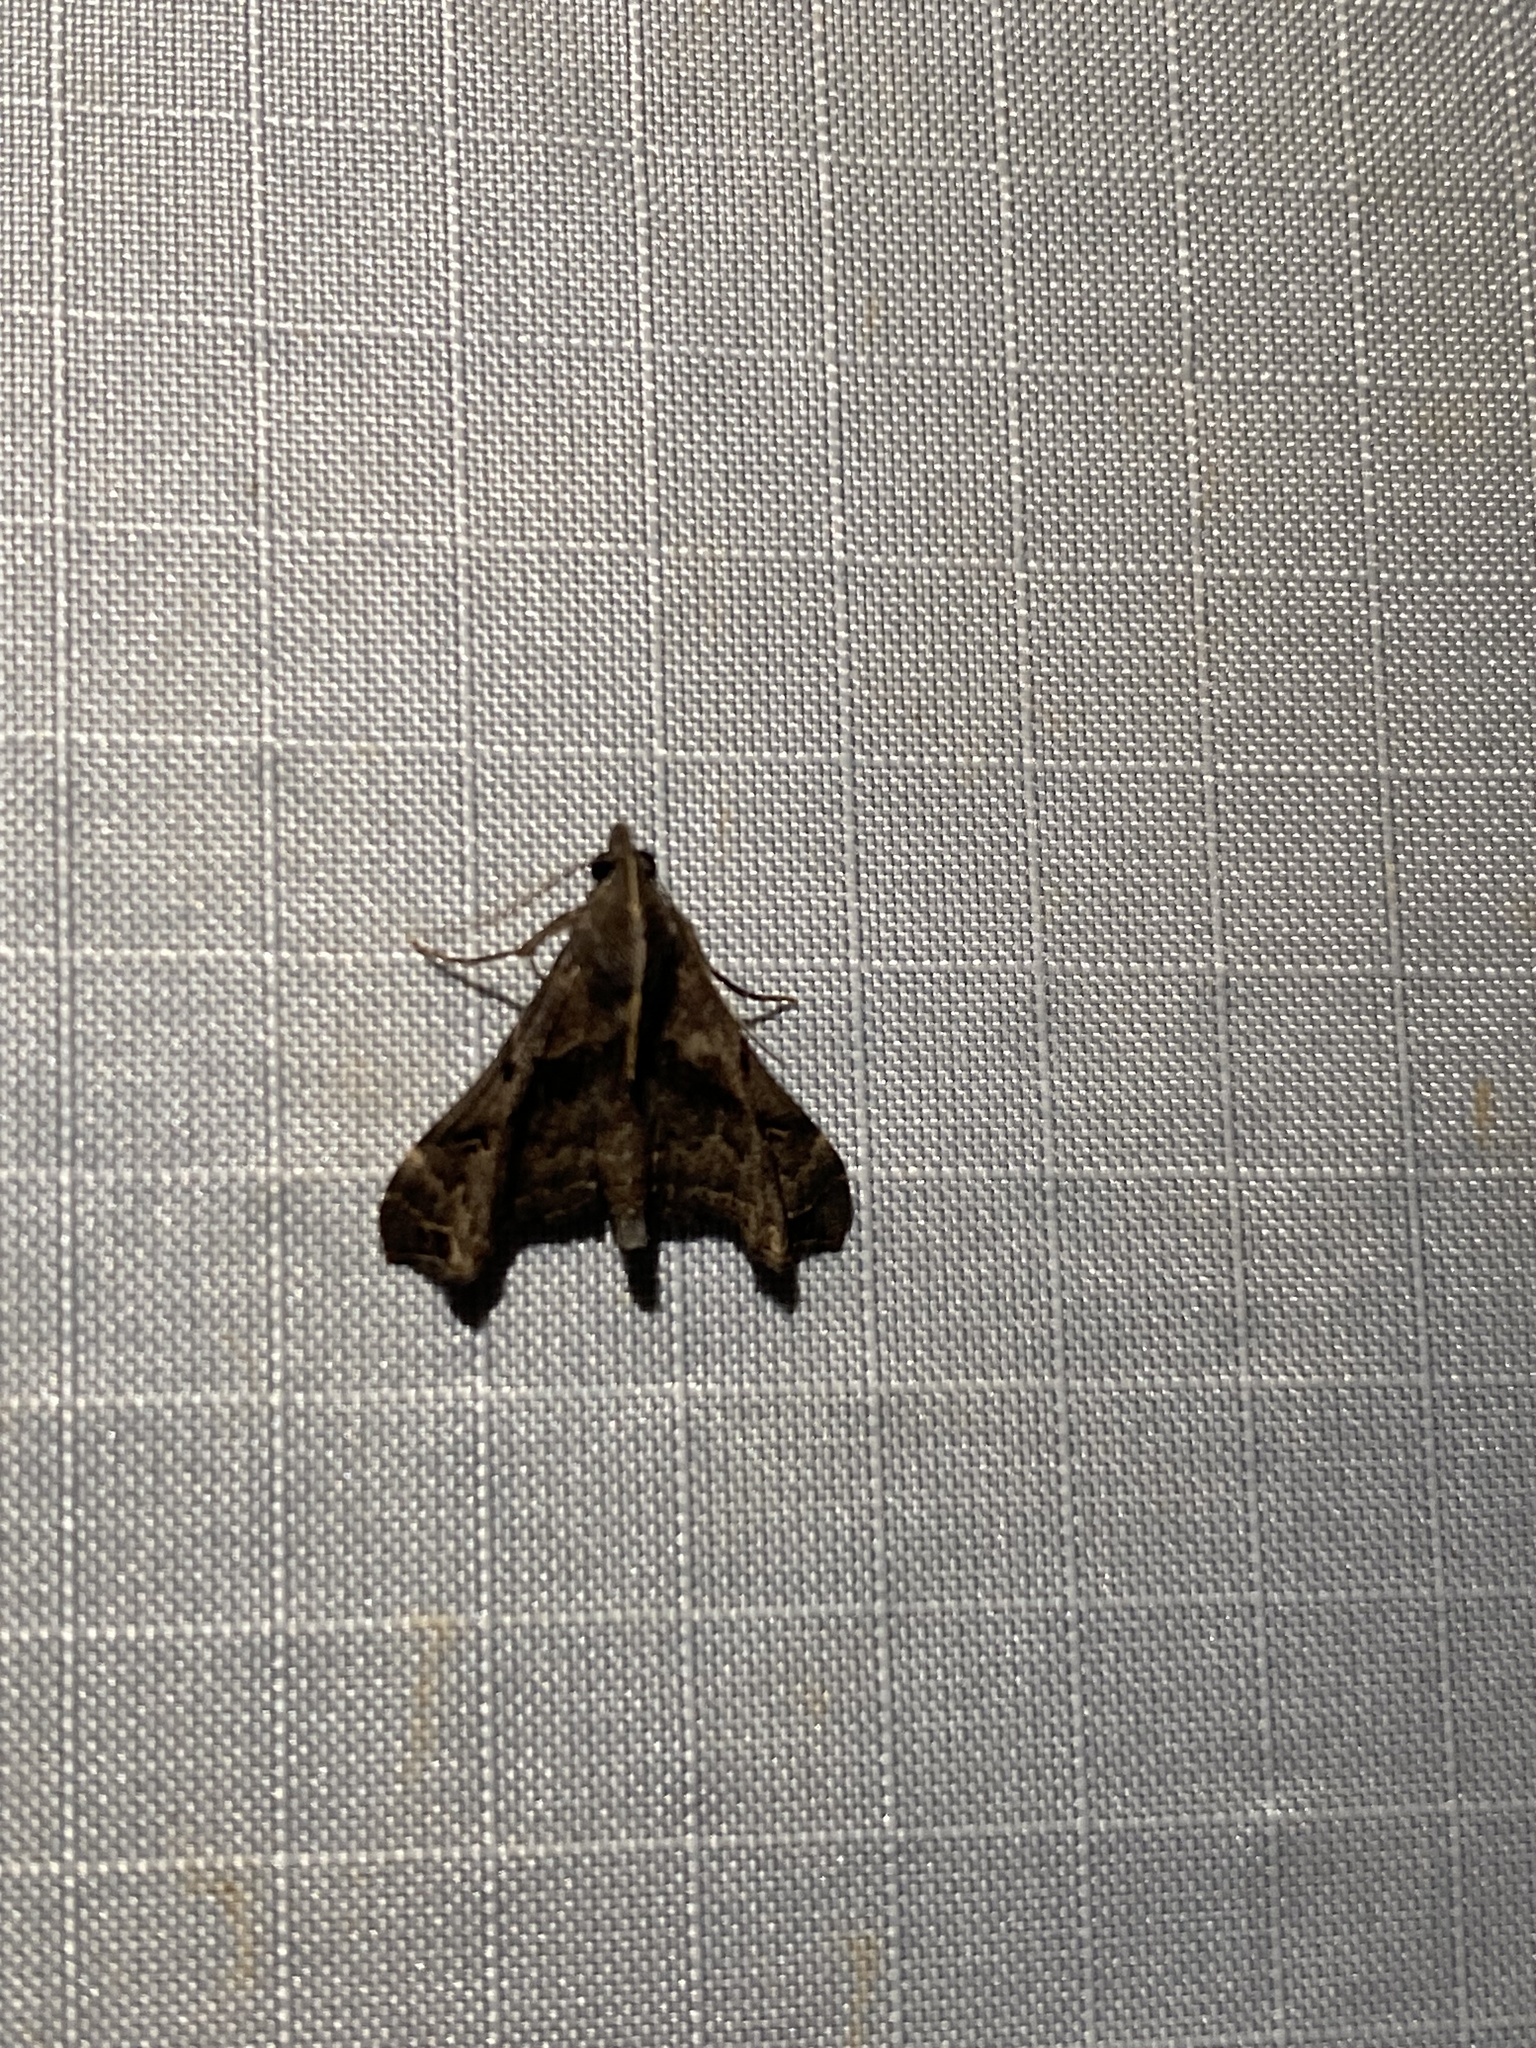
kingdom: Animalia
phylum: Arthropoda
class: Insecta
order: Lepidoptera
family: Erebidae
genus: Palthis
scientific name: Palthis asopialis
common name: Faint-spotted palthis moth
